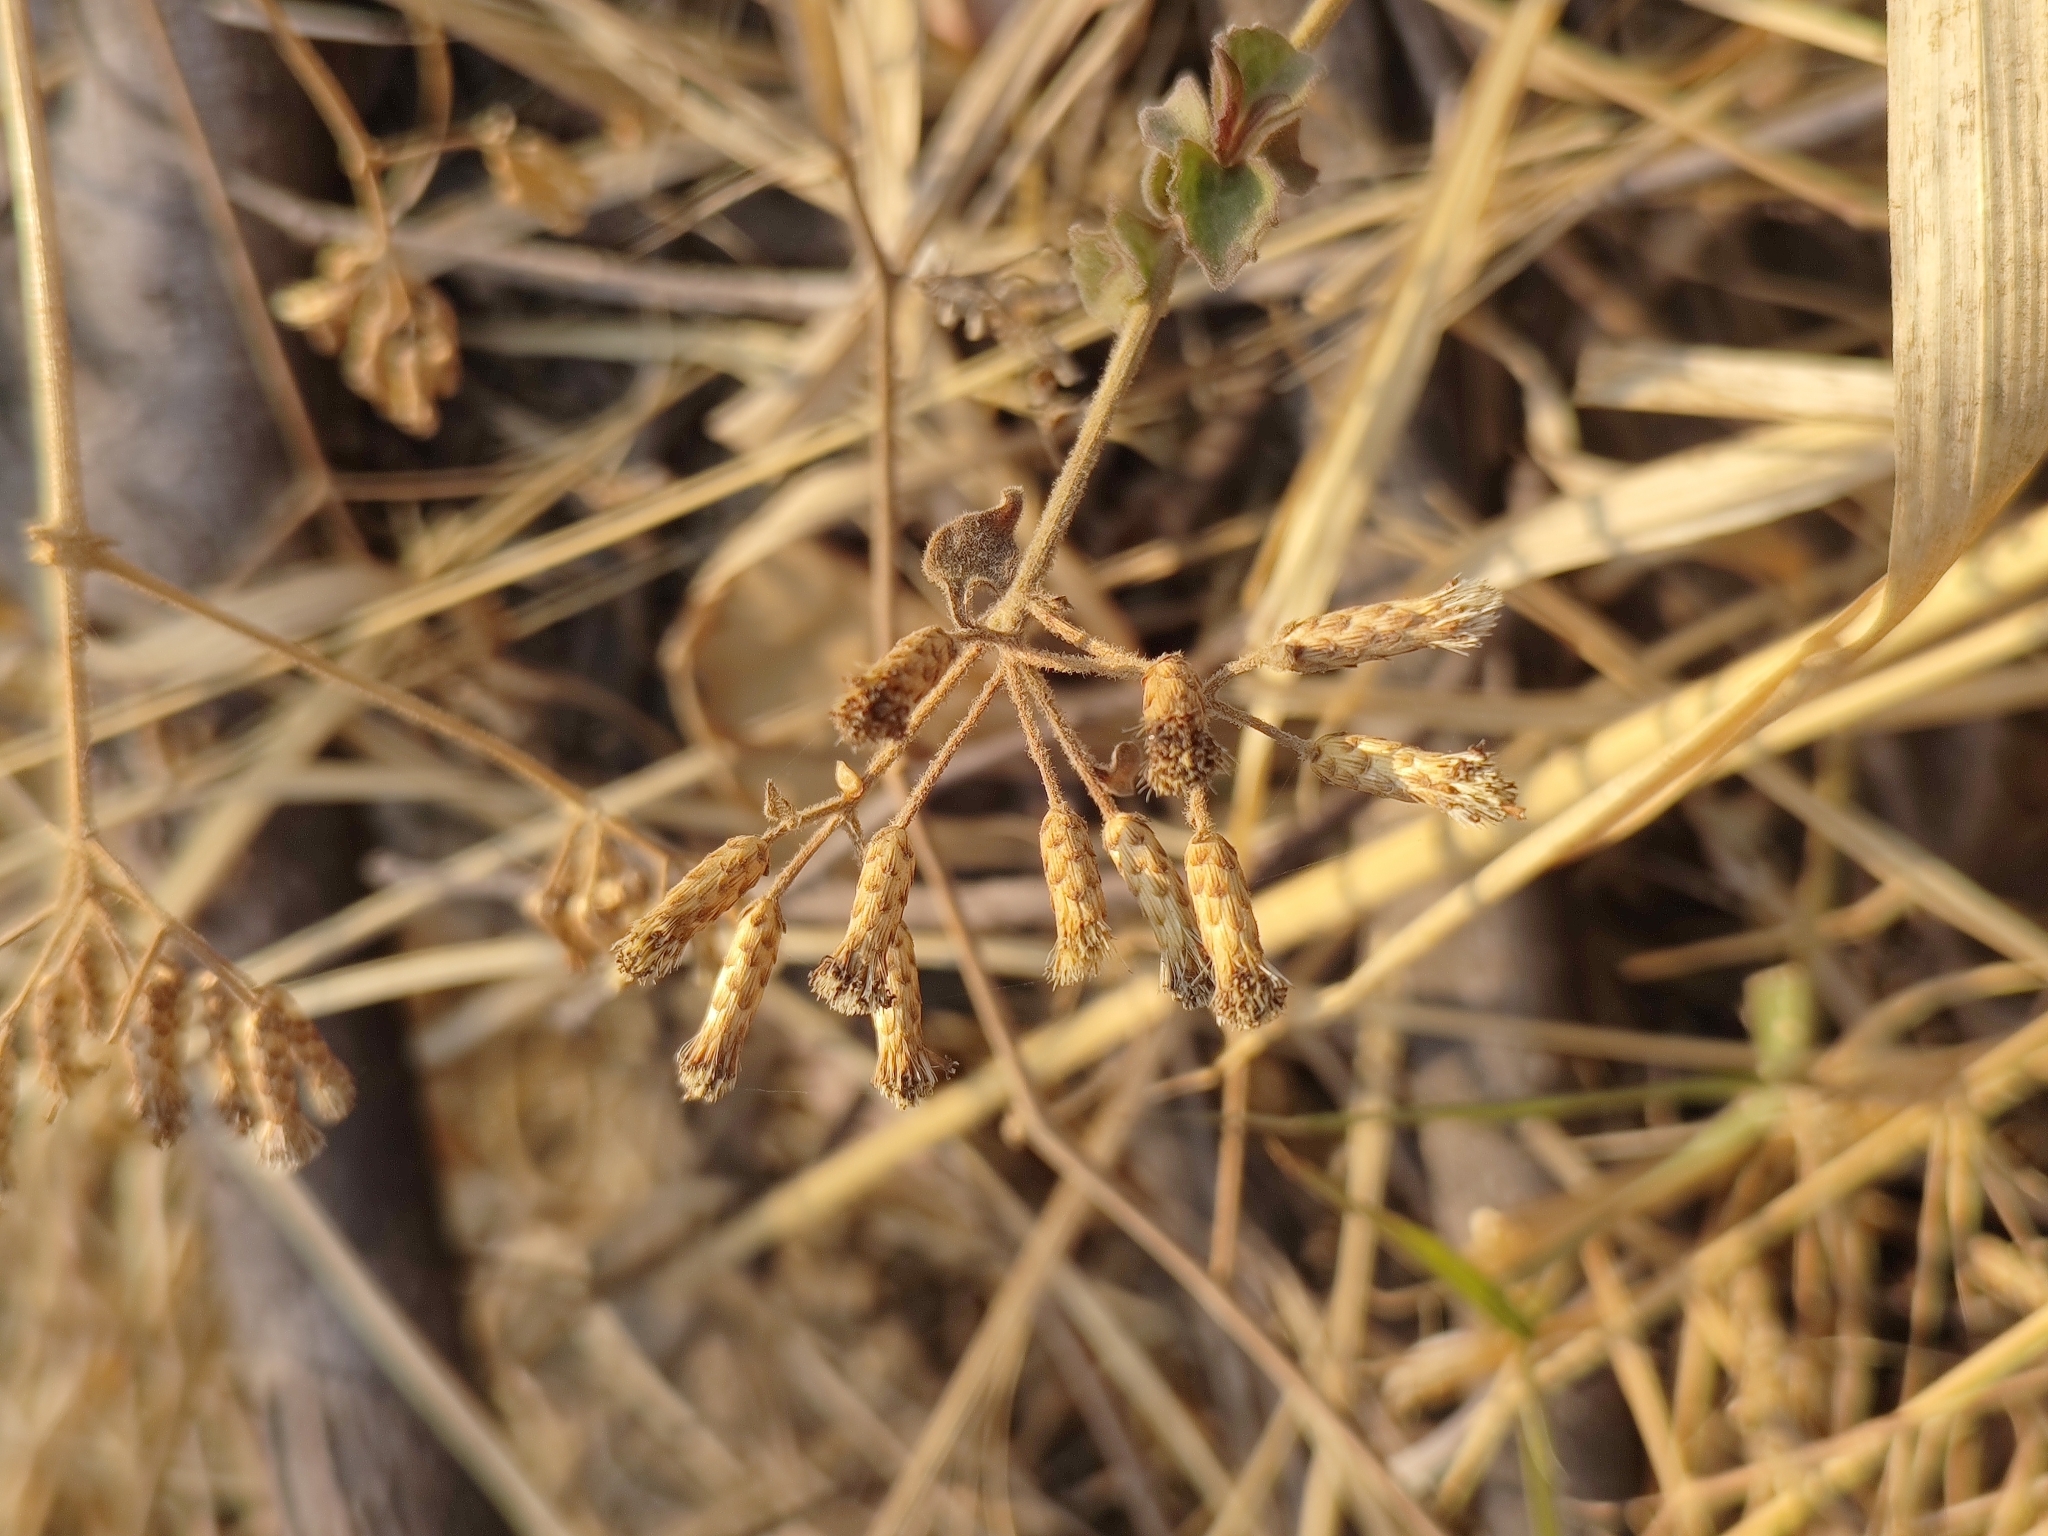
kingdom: Plantae
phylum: Tracheophyta
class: Magnoliopsida
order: Asterales
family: Asteraceae
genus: Chromolaena
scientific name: Chromolaena odorata
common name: Siamweed
